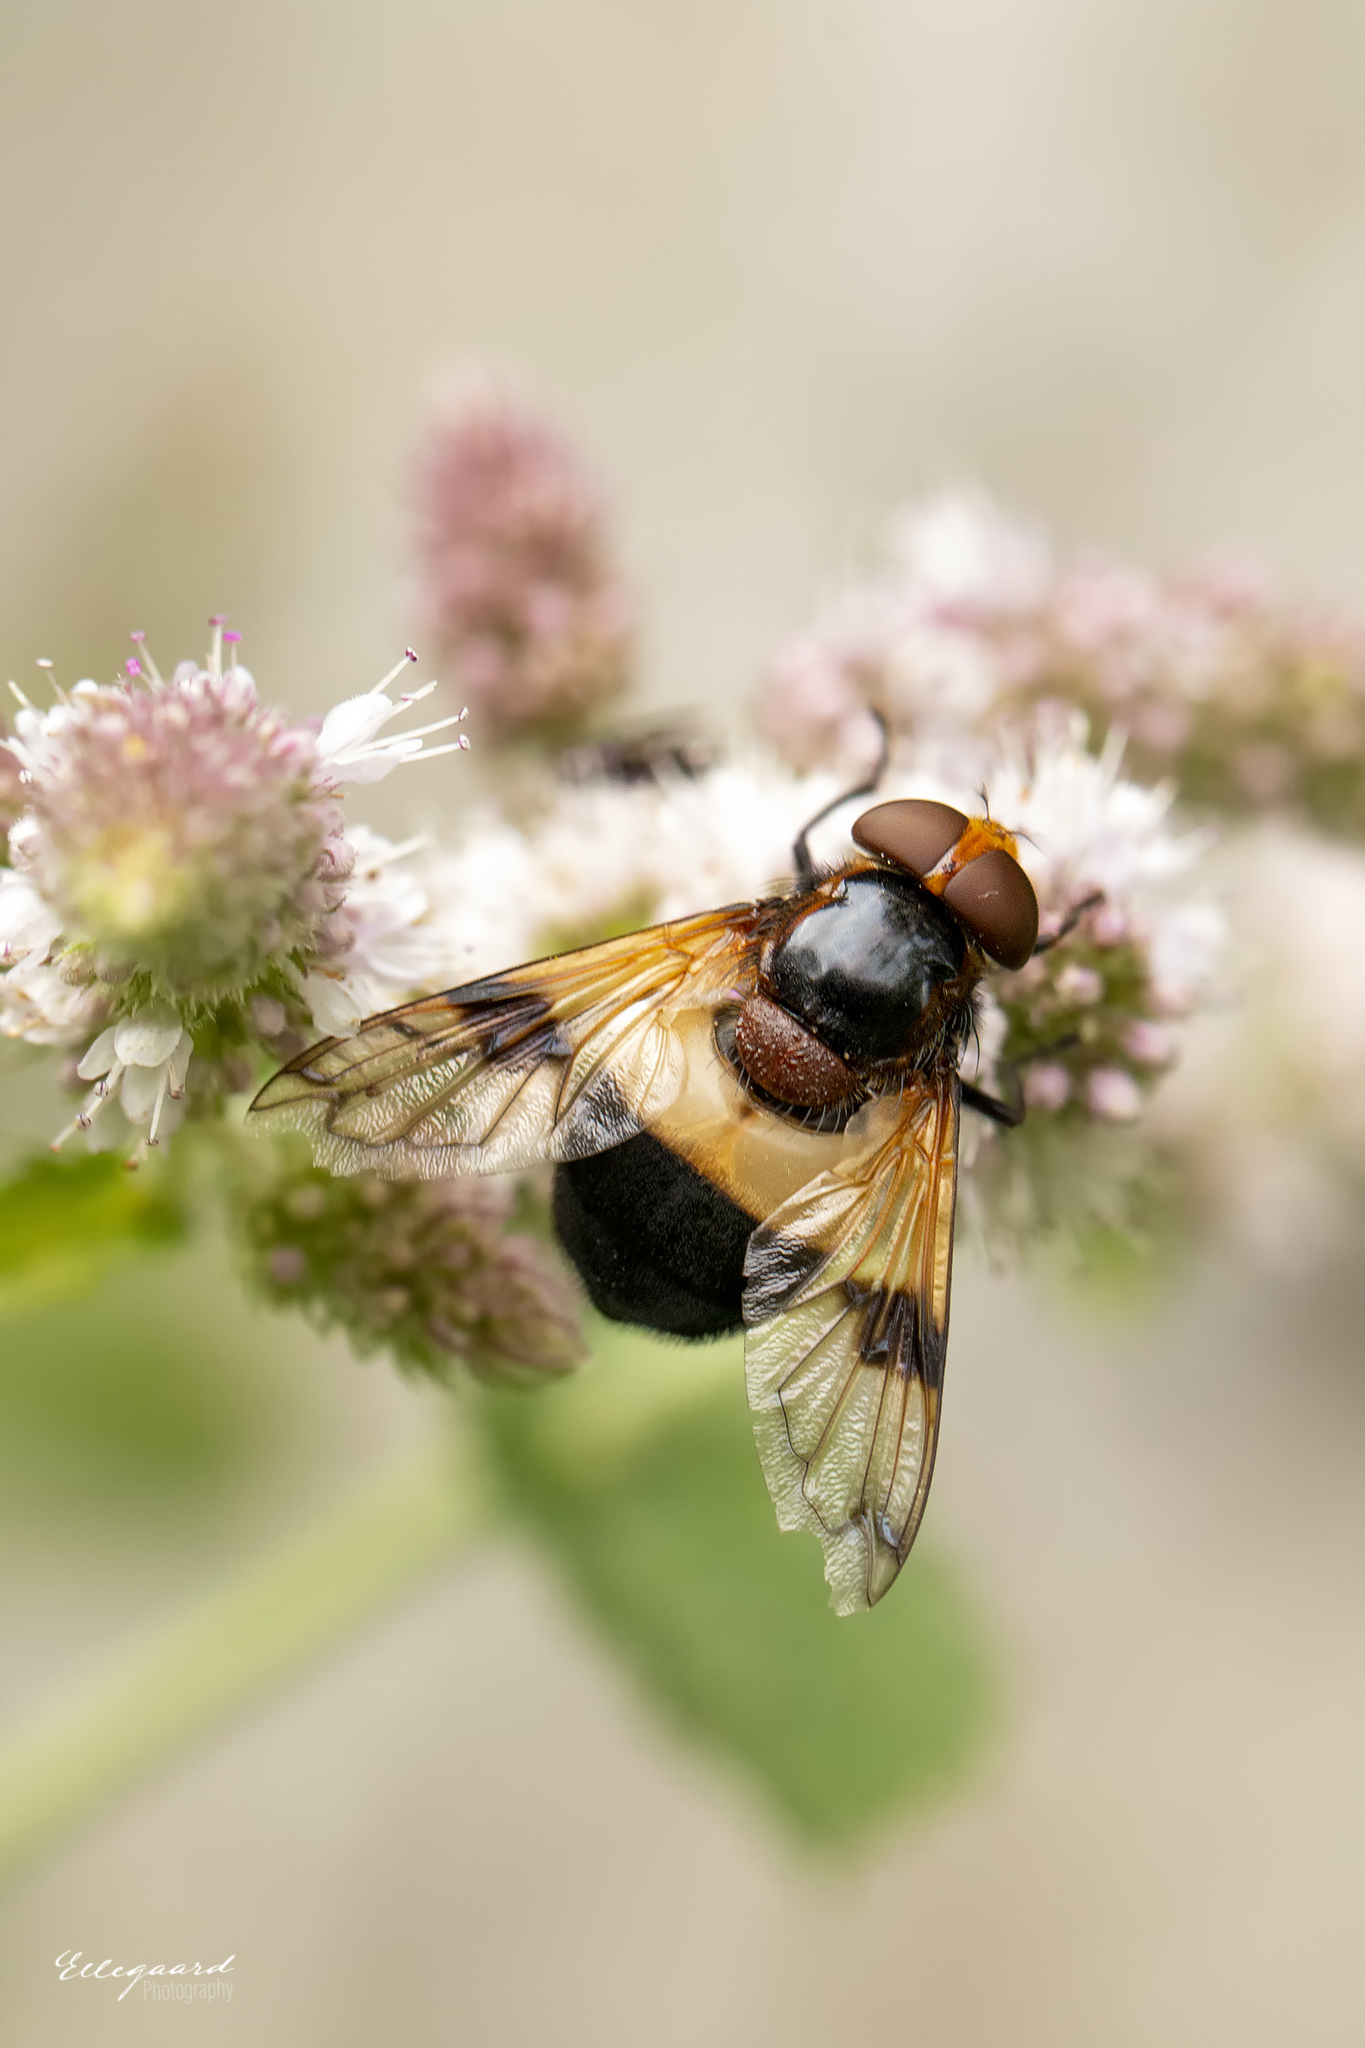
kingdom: Animalia
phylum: Arthropoda
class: Insecta
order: Diptera
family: Syrphidae
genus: Volucella
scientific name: Volucella pellucens
